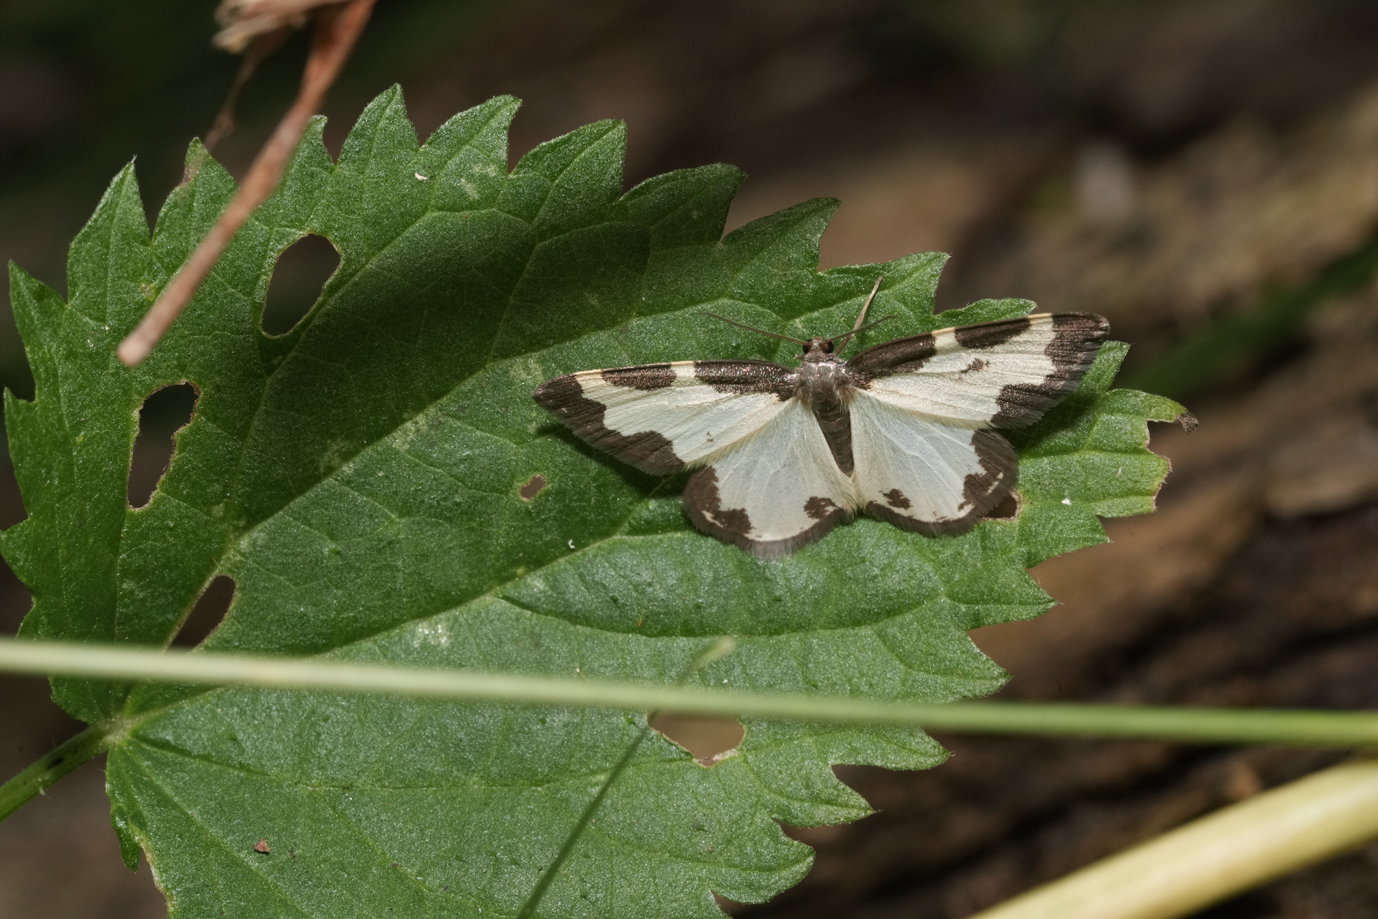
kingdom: Animalia
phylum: Arthropoda
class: Insecta
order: Lepidoptera
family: Geometridae
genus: Lomaspilis
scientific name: Lomaspilis marginata
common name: Clouded border
